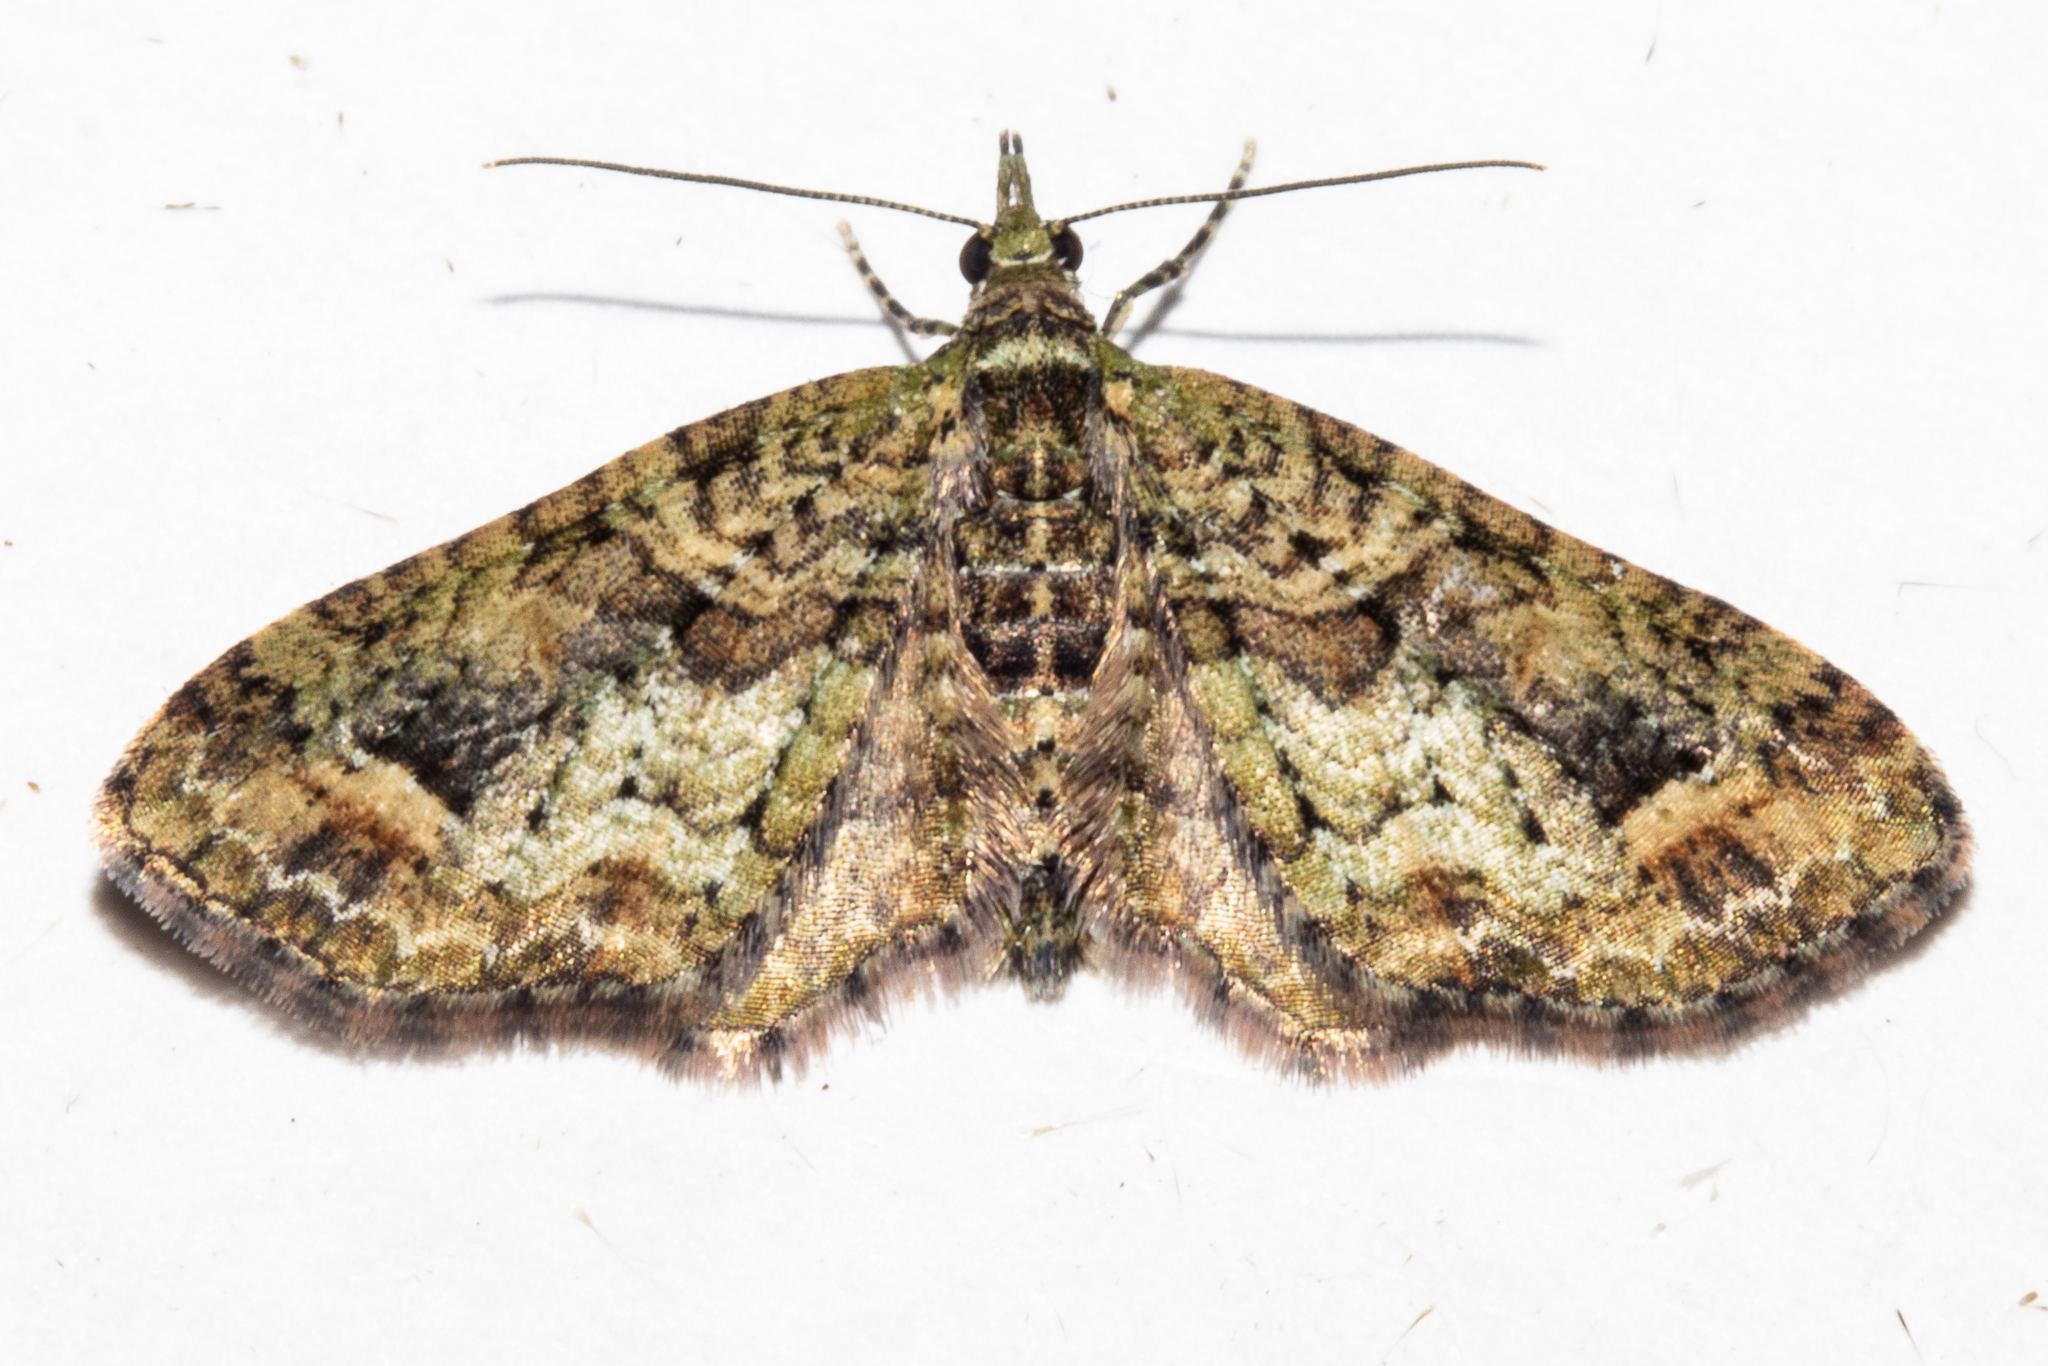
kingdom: Animalia
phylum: Arthropoda
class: Insecta
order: Lepidoptera
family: Geometridae
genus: Idaea
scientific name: Idaea mutanda
